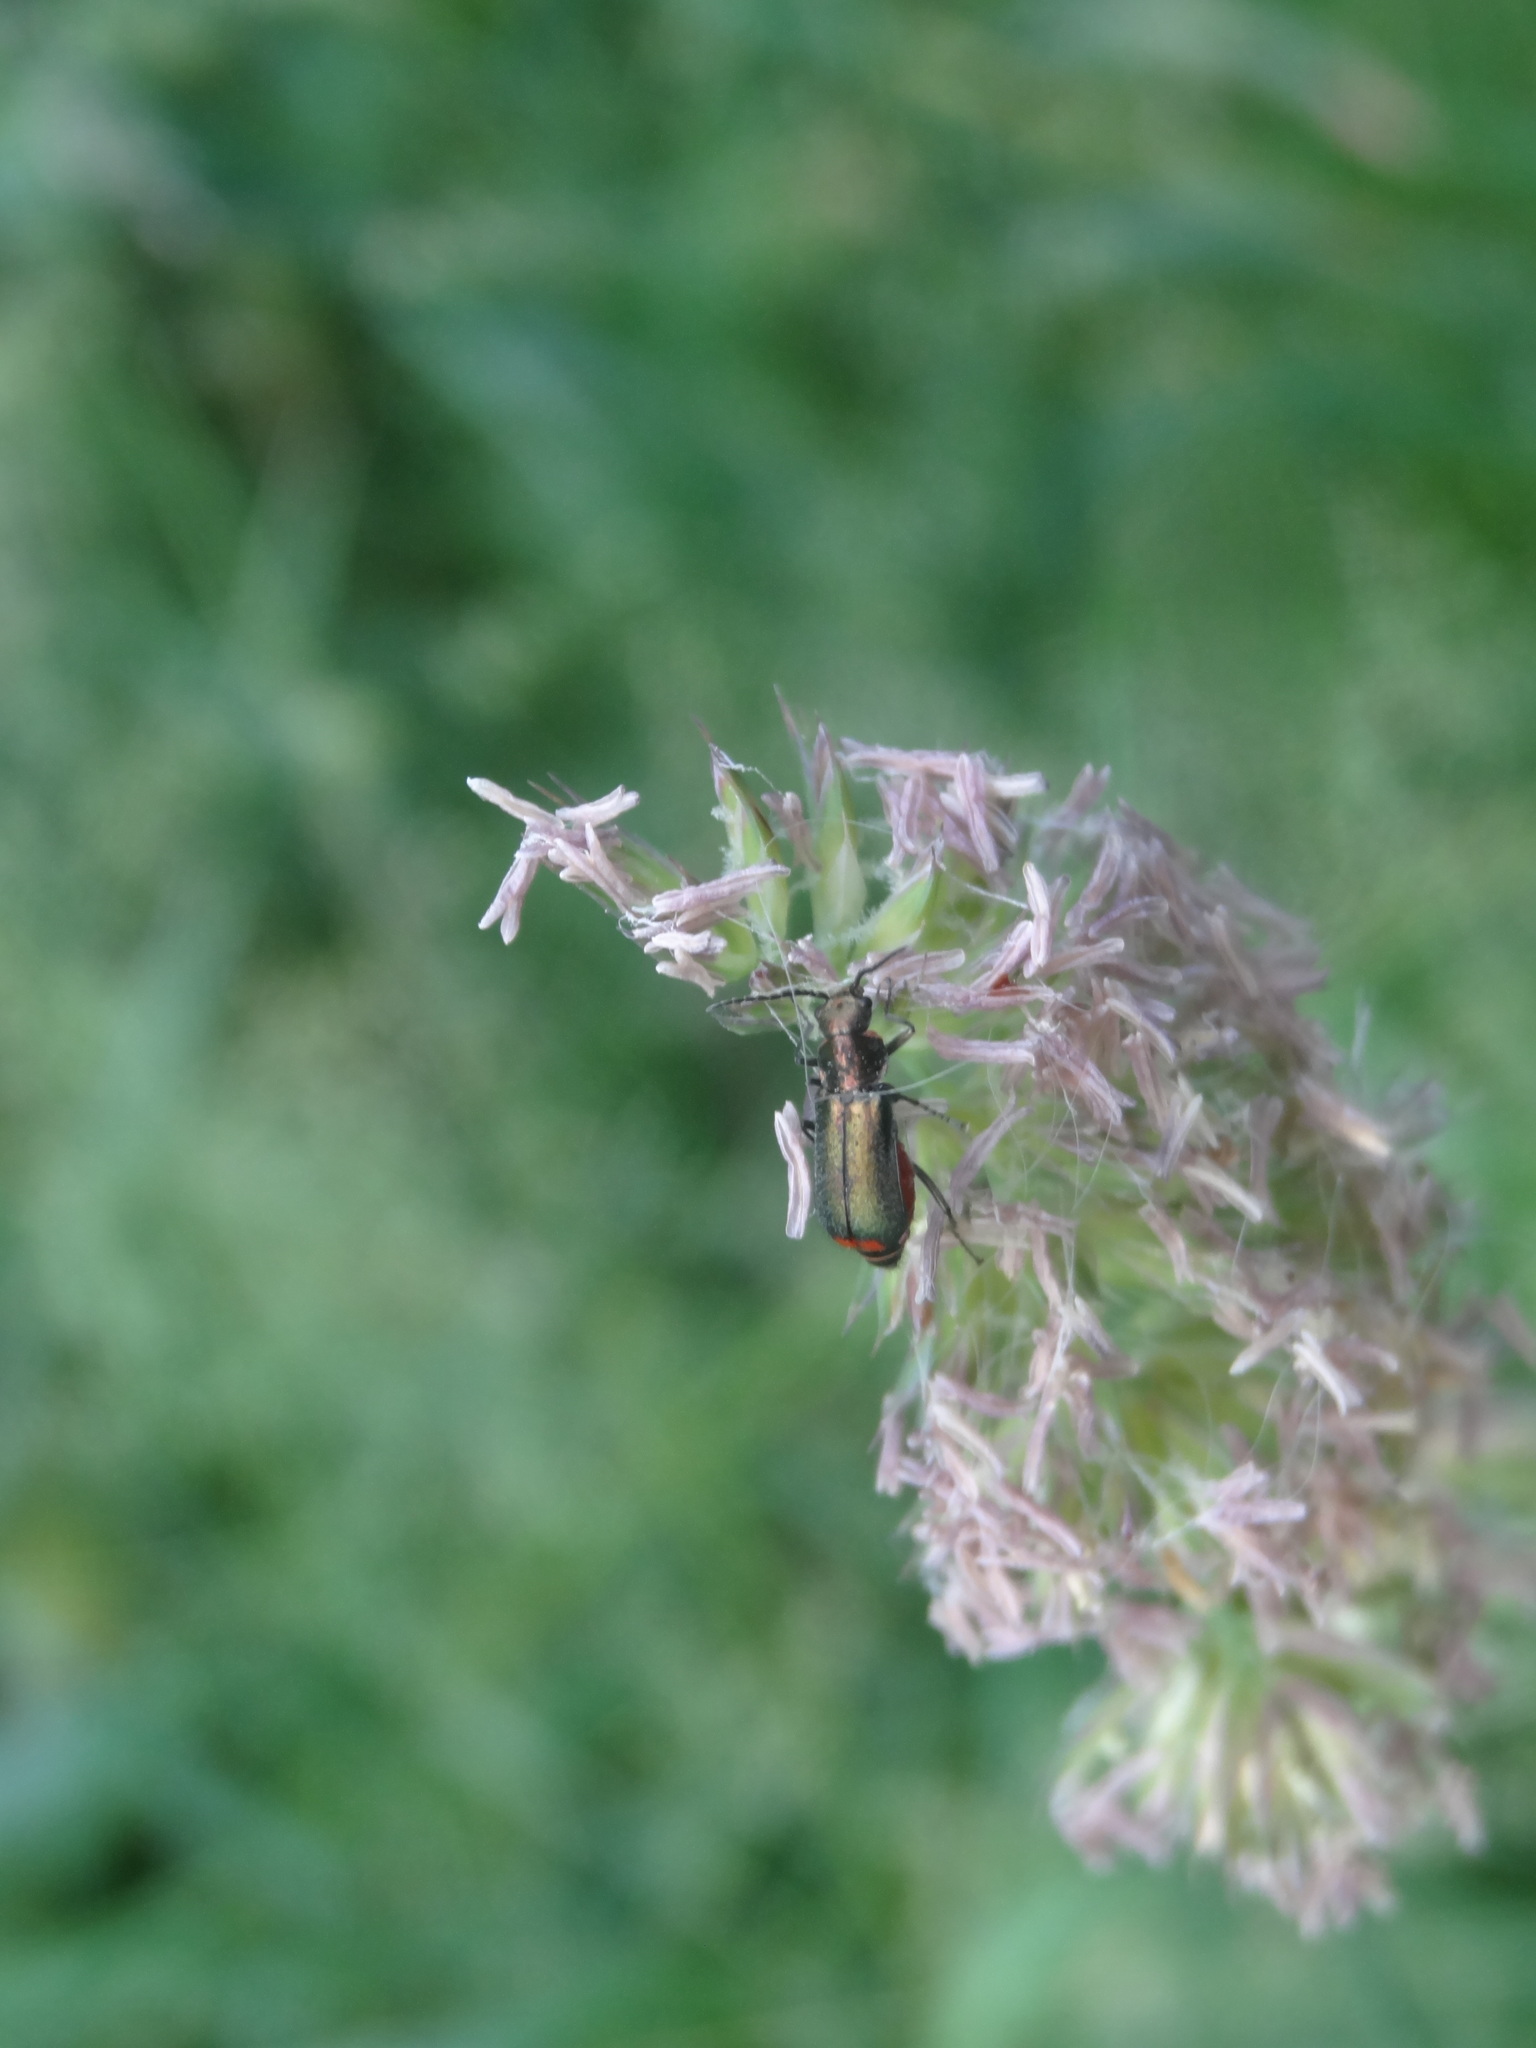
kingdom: Animalia
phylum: Arthropoda
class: Insecta
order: Coleoptera
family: Melyridae
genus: Malachius
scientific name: Malachius bipustulatus
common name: Malachite beetle
